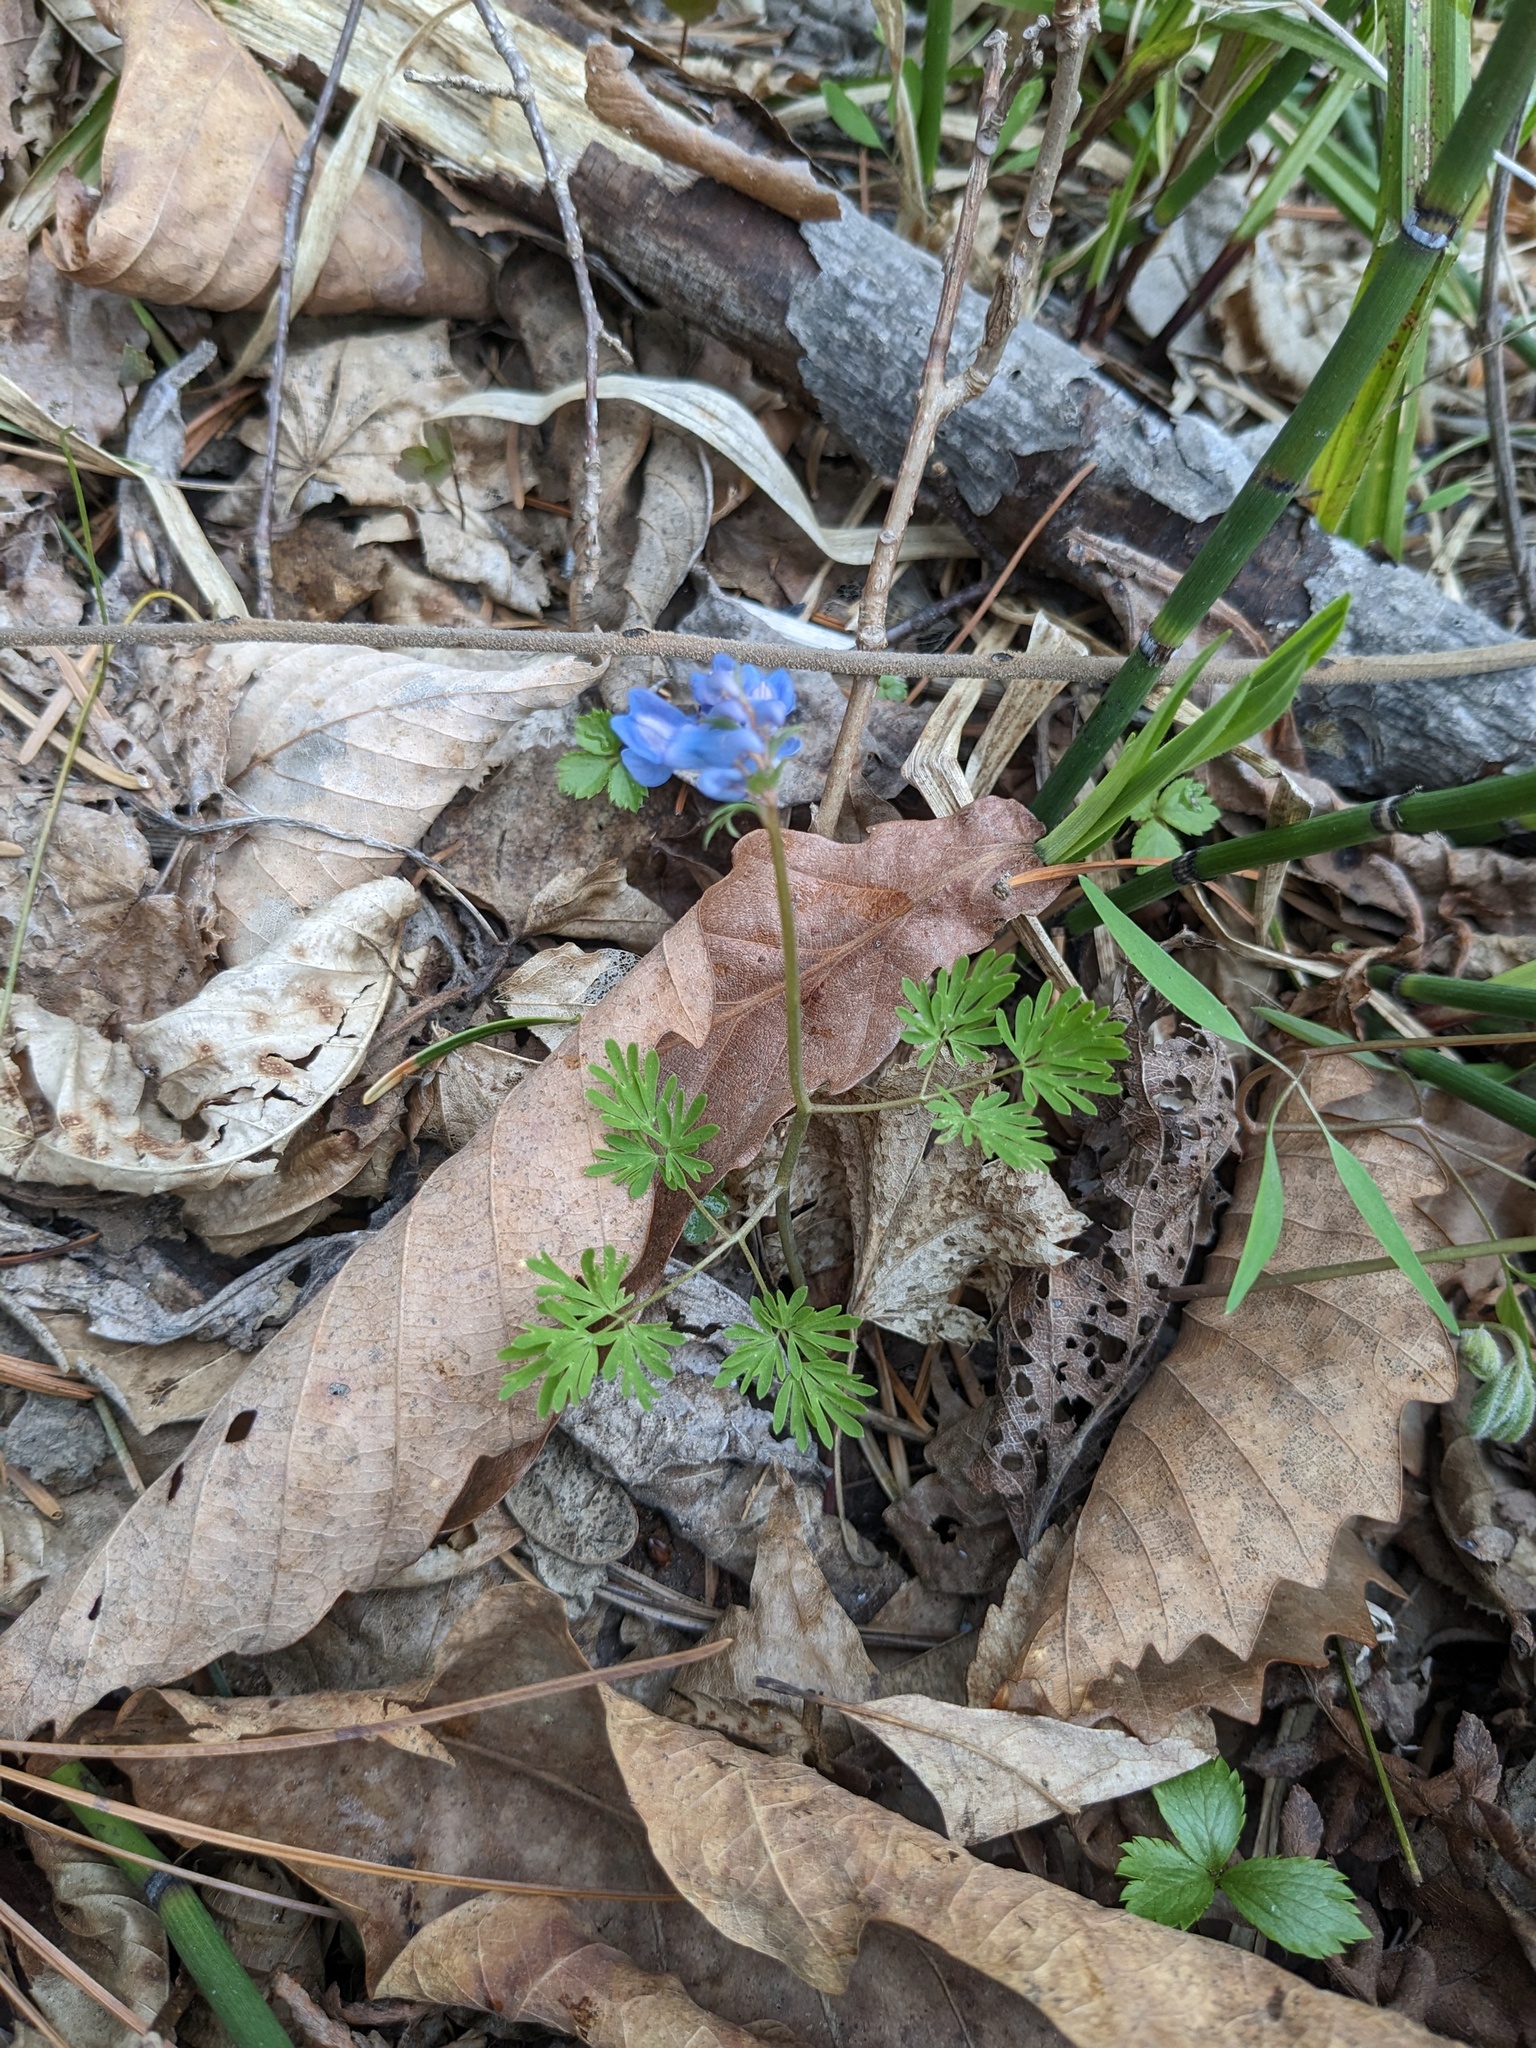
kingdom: Plantae
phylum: Tracheophyta
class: Magnoliopsida
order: Ranunculales
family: Papaveraceae
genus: Corydalis
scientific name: Corydalis fumariifolia
